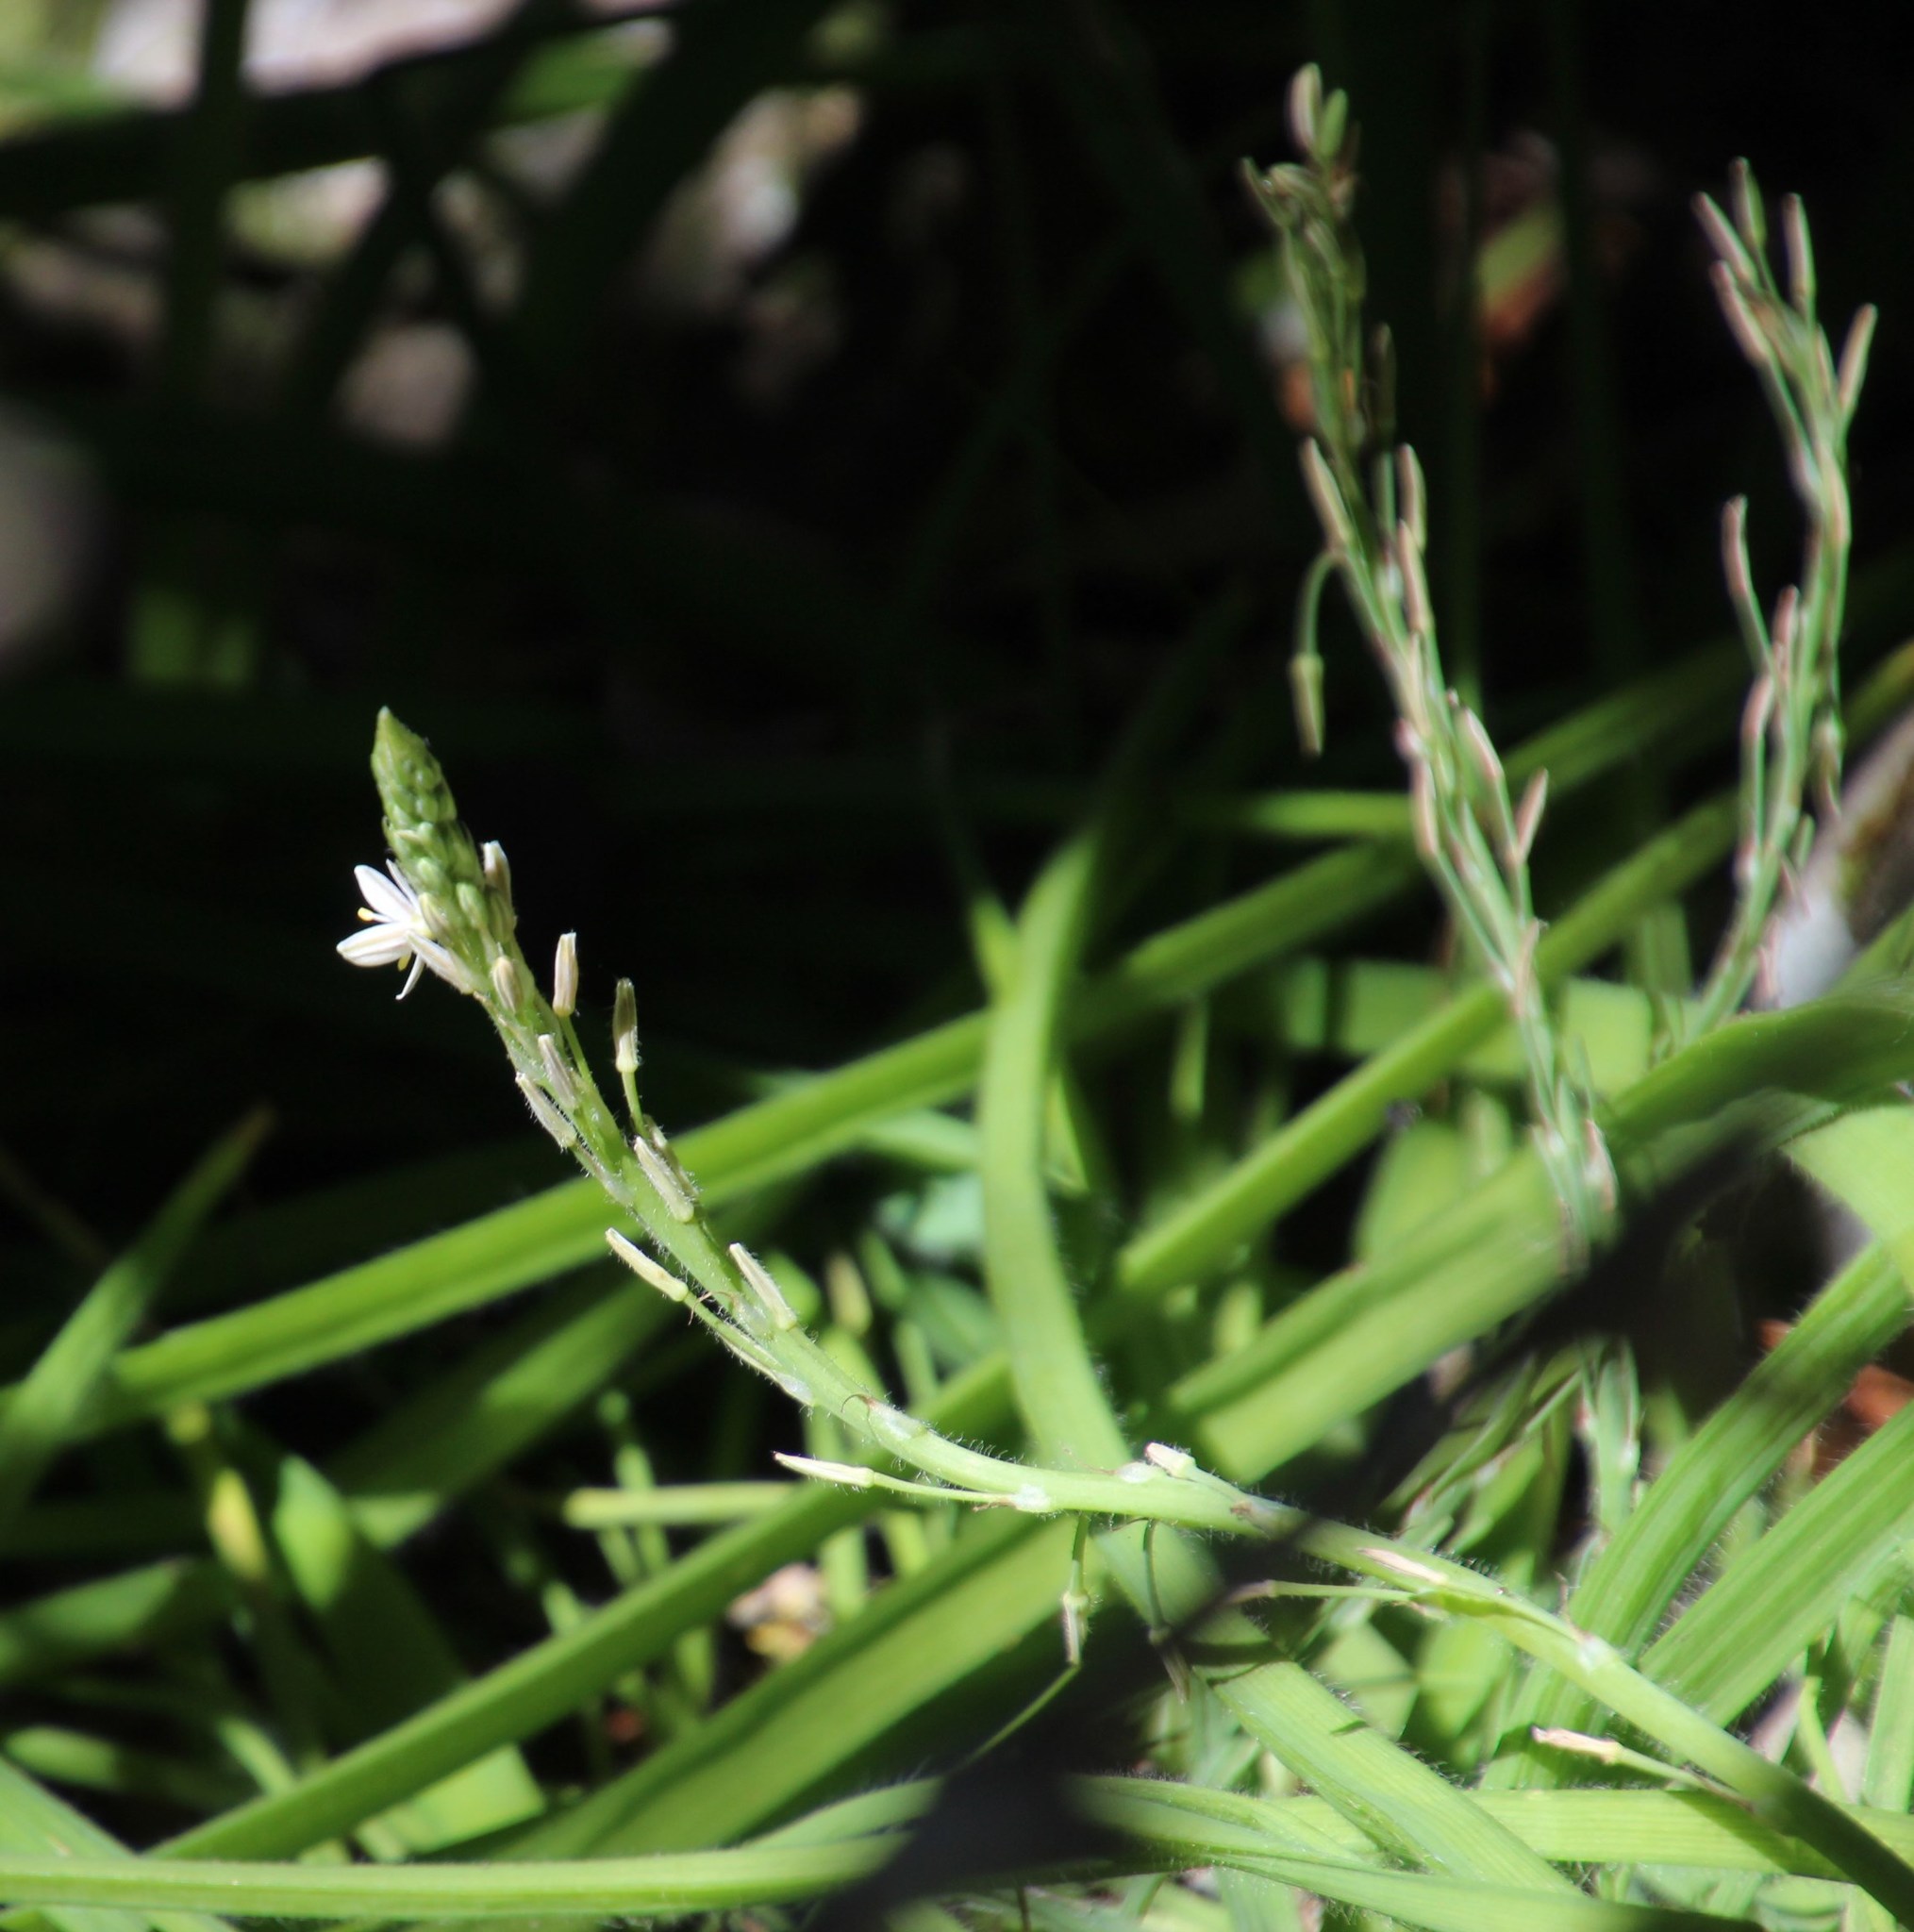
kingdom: Plantae
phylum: Tracheophyta
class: Liliopsida
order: Asparagales
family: Asphodelaceae
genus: Trachyandra
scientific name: Trachyandra hirsutiflora
